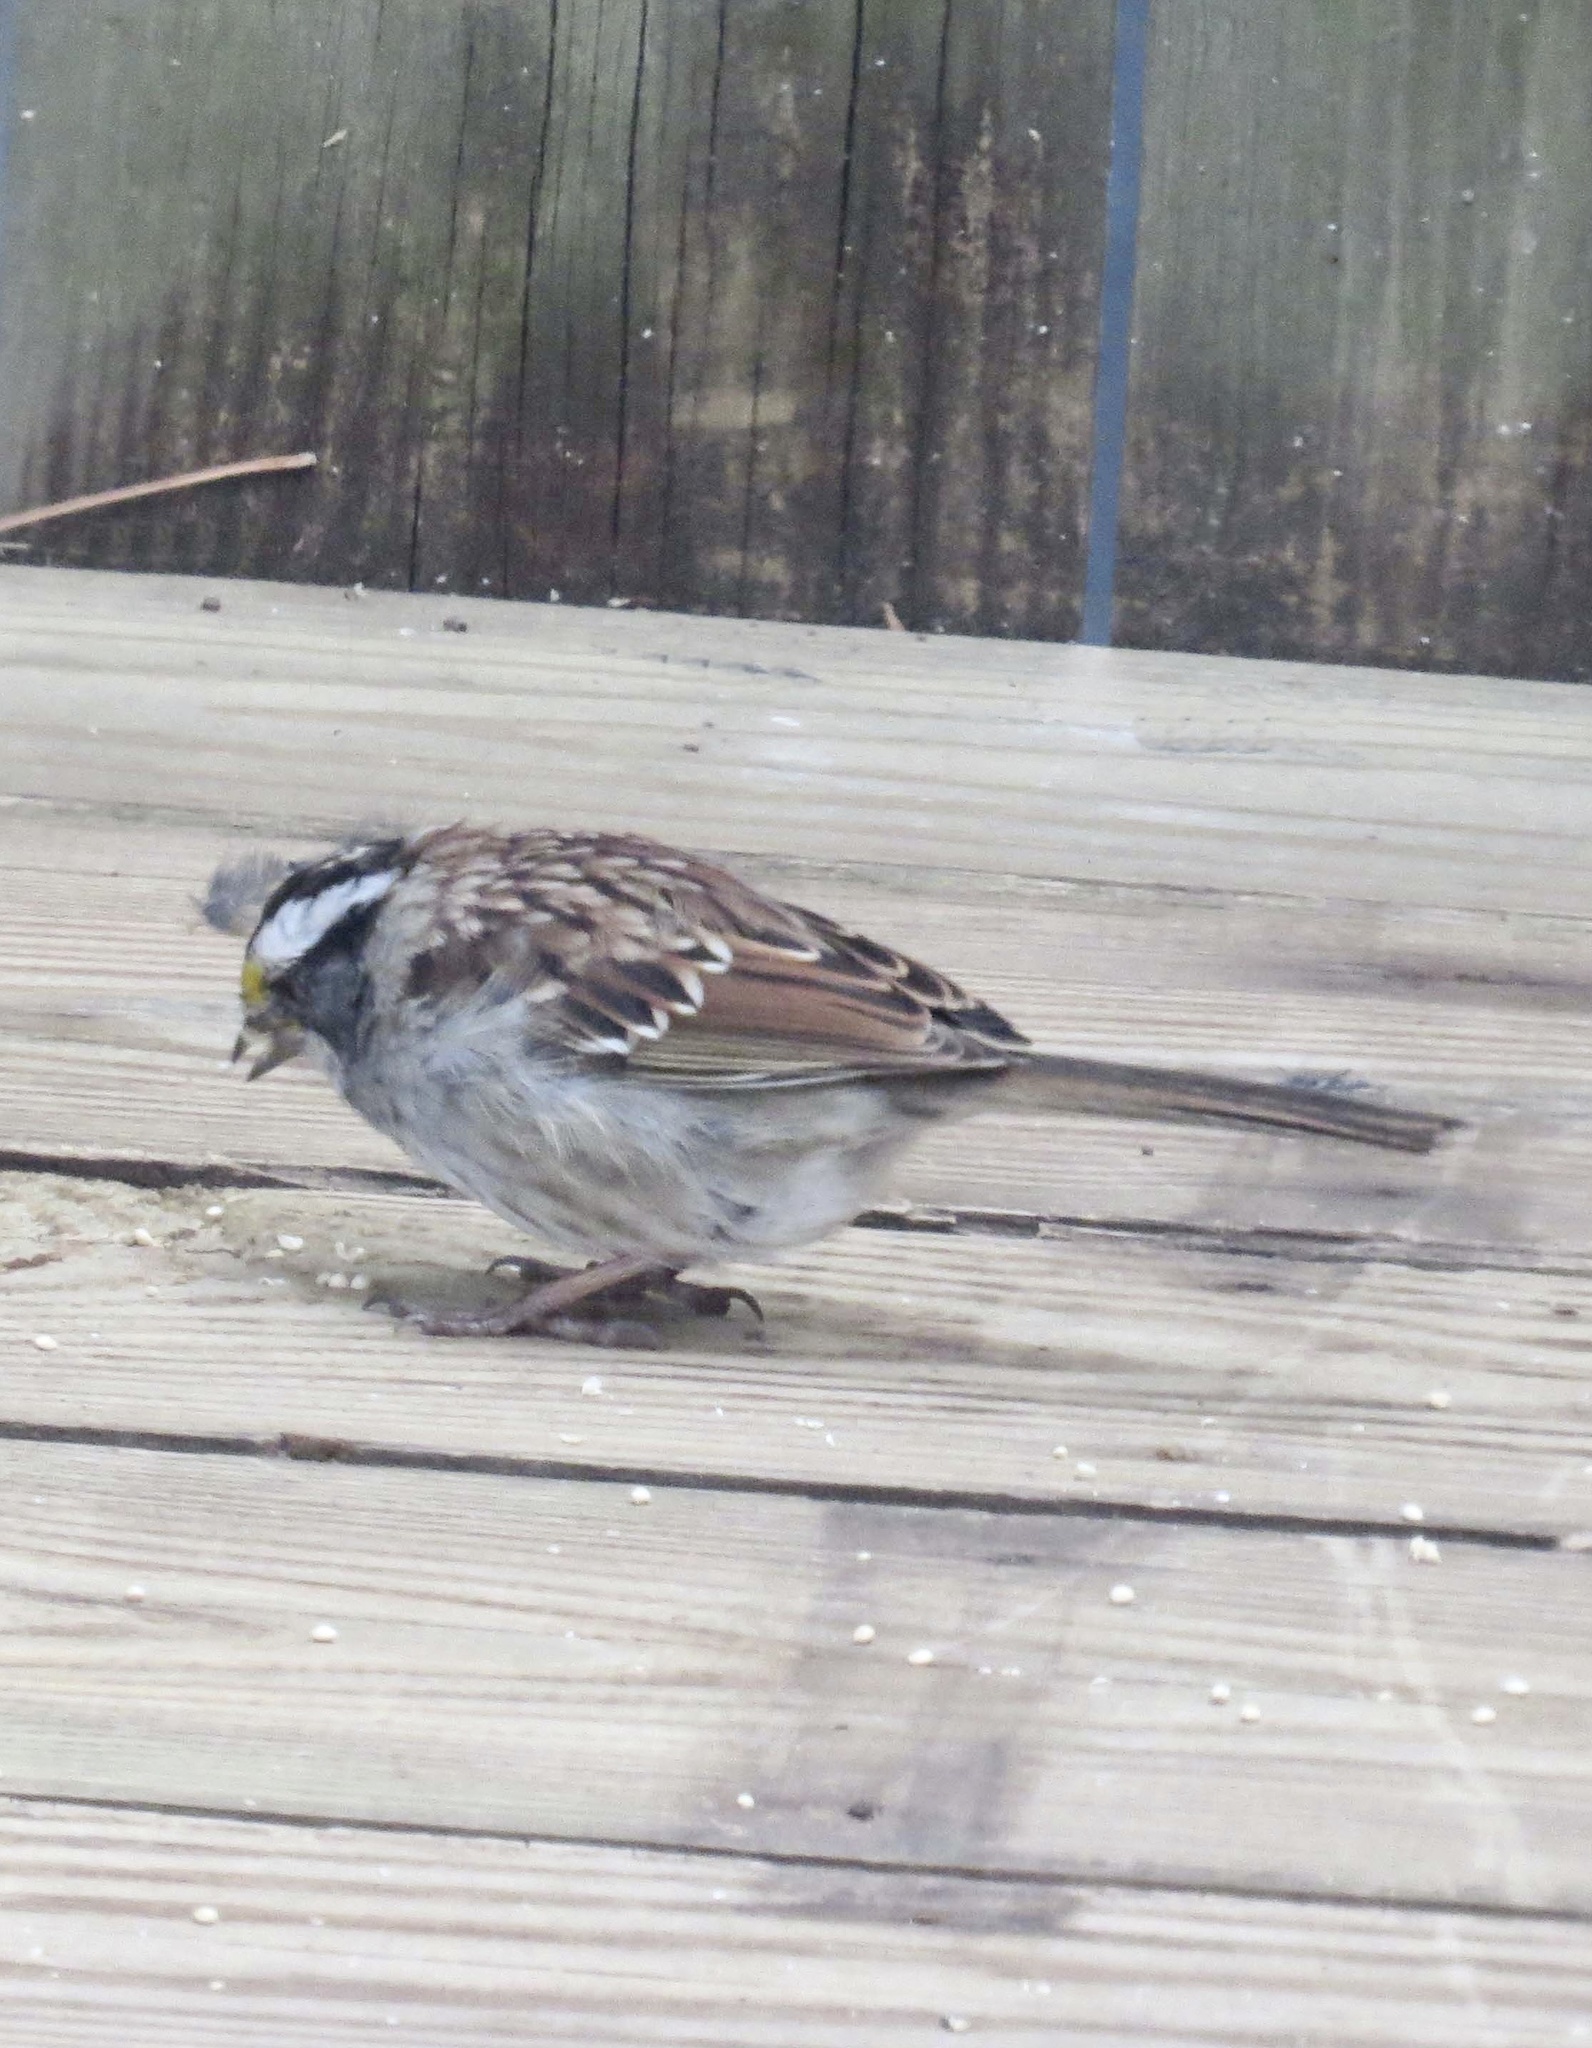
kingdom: Animalia
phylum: Chordata
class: Aves
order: Passeriformes
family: Passerellidae
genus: Zonotrichia
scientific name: Zonotrichia albicollis
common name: White-throated sparrow
